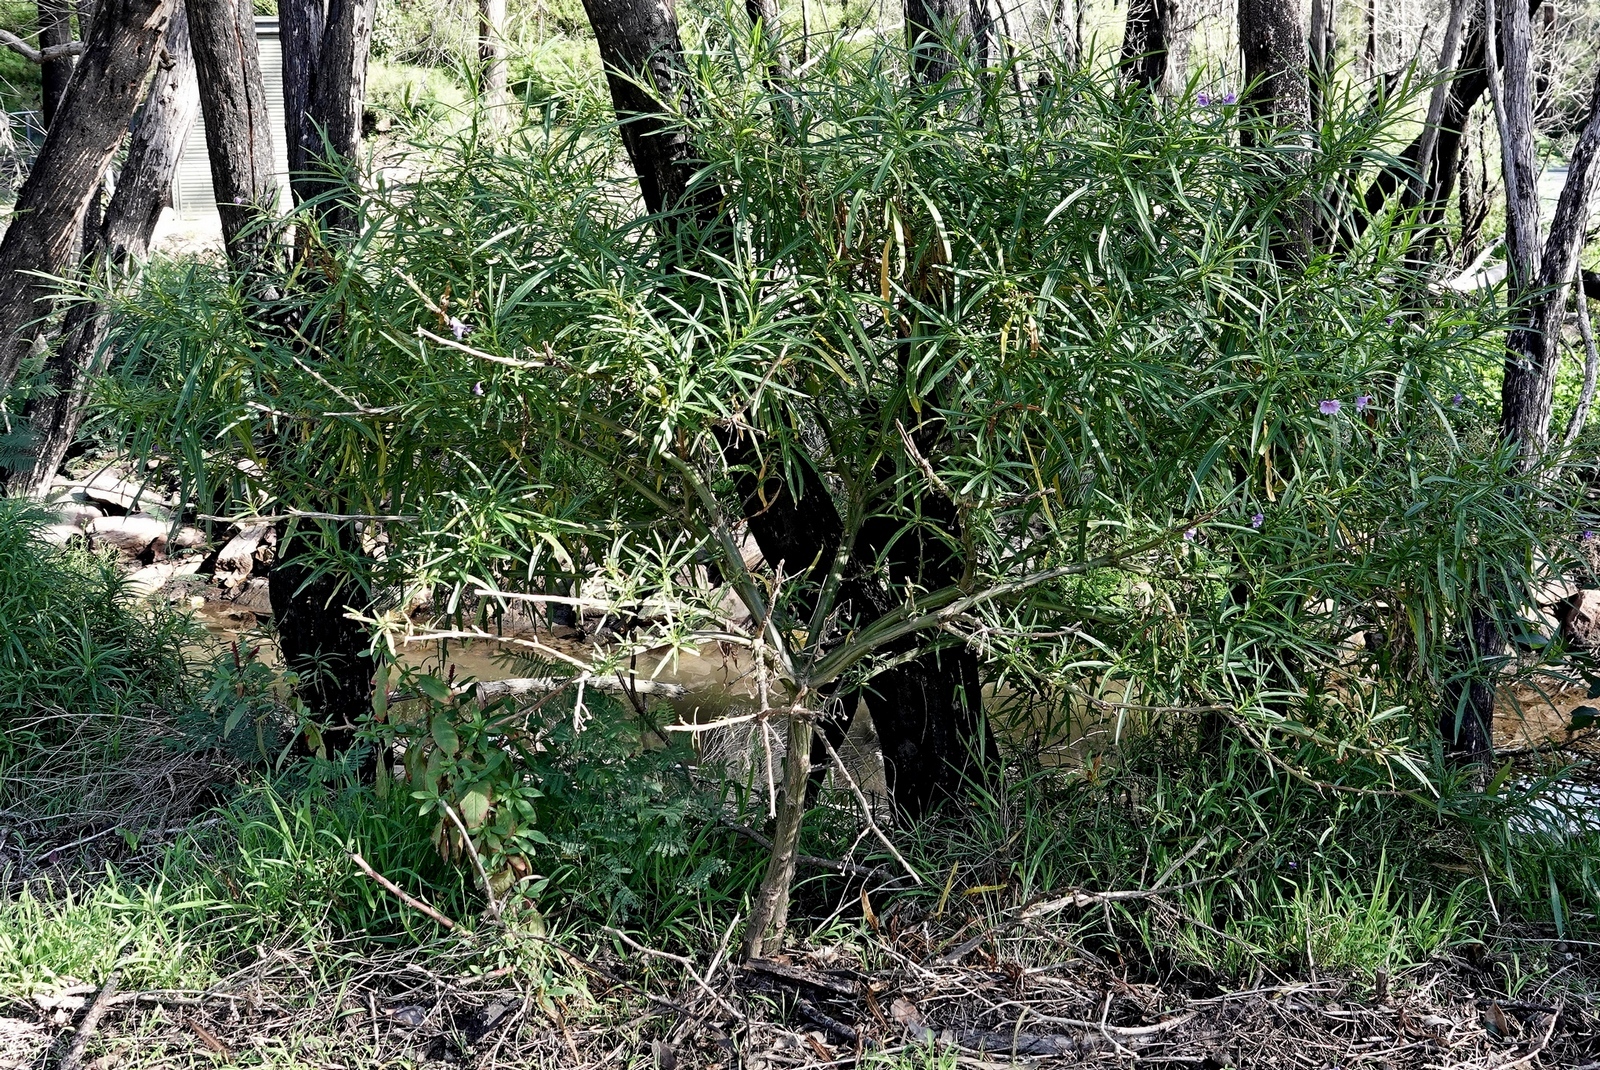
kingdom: Plantae
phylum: Tracheophyta
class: Magnoliopsida
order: Solanales
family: Solanaceae
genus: Solanum
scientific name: Solanum vescum
